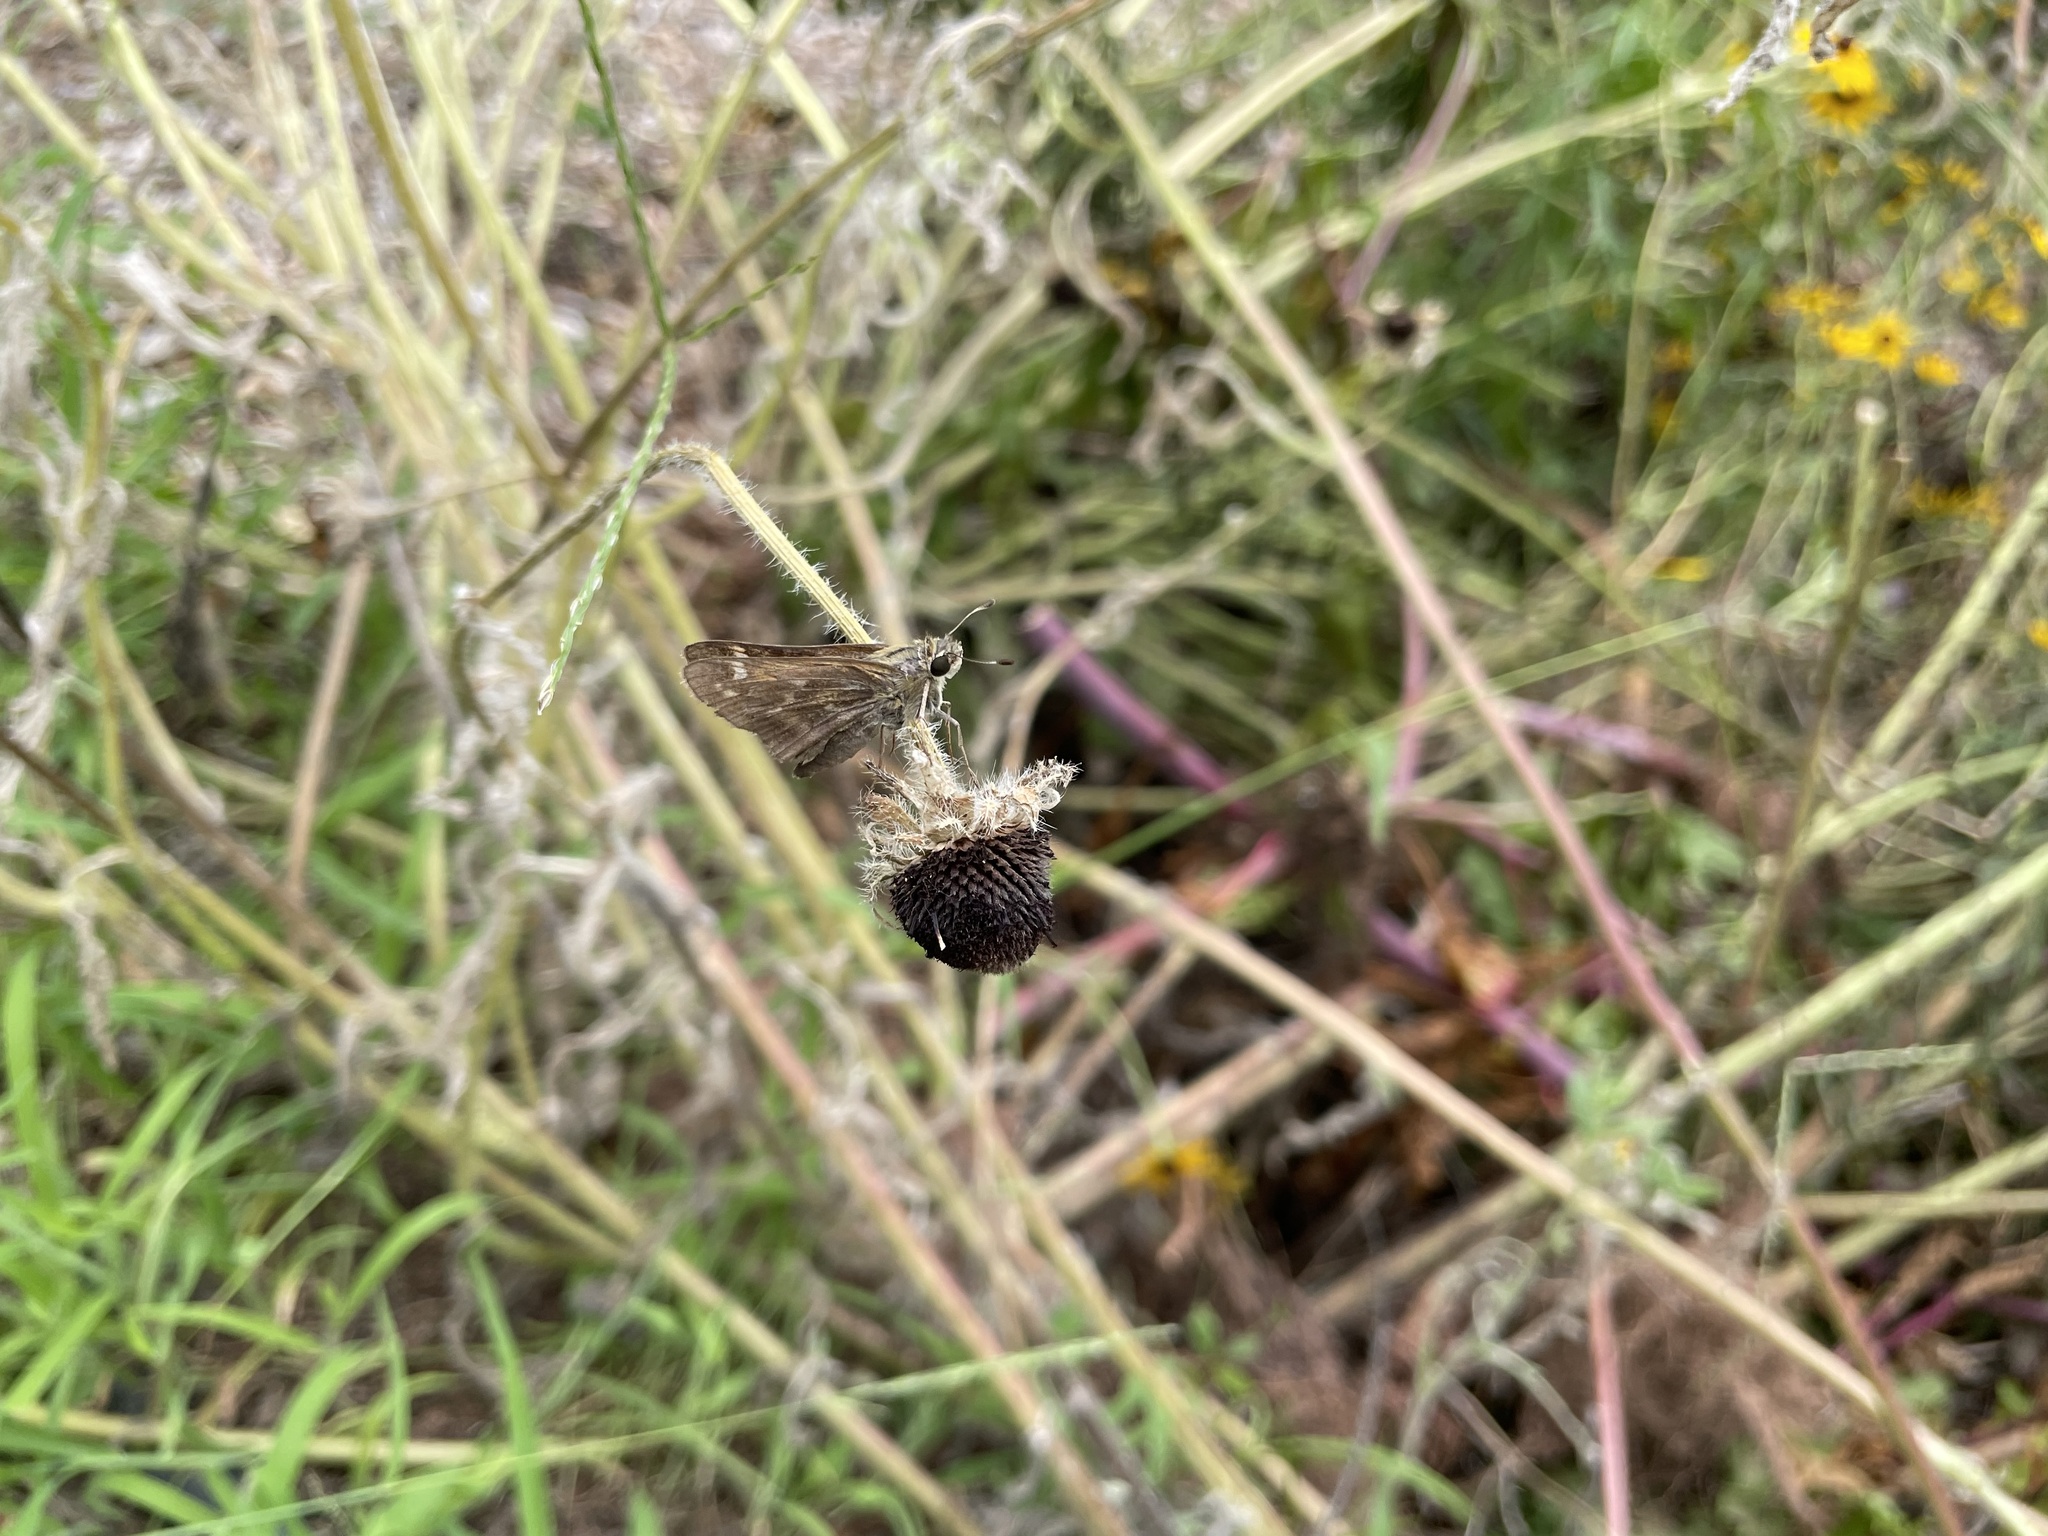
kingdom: Animalia
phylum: Arthropoda
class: Insecta
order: Lepidoptera
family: Hesperiidae
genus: Atalopedes
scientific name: Atalopedes
